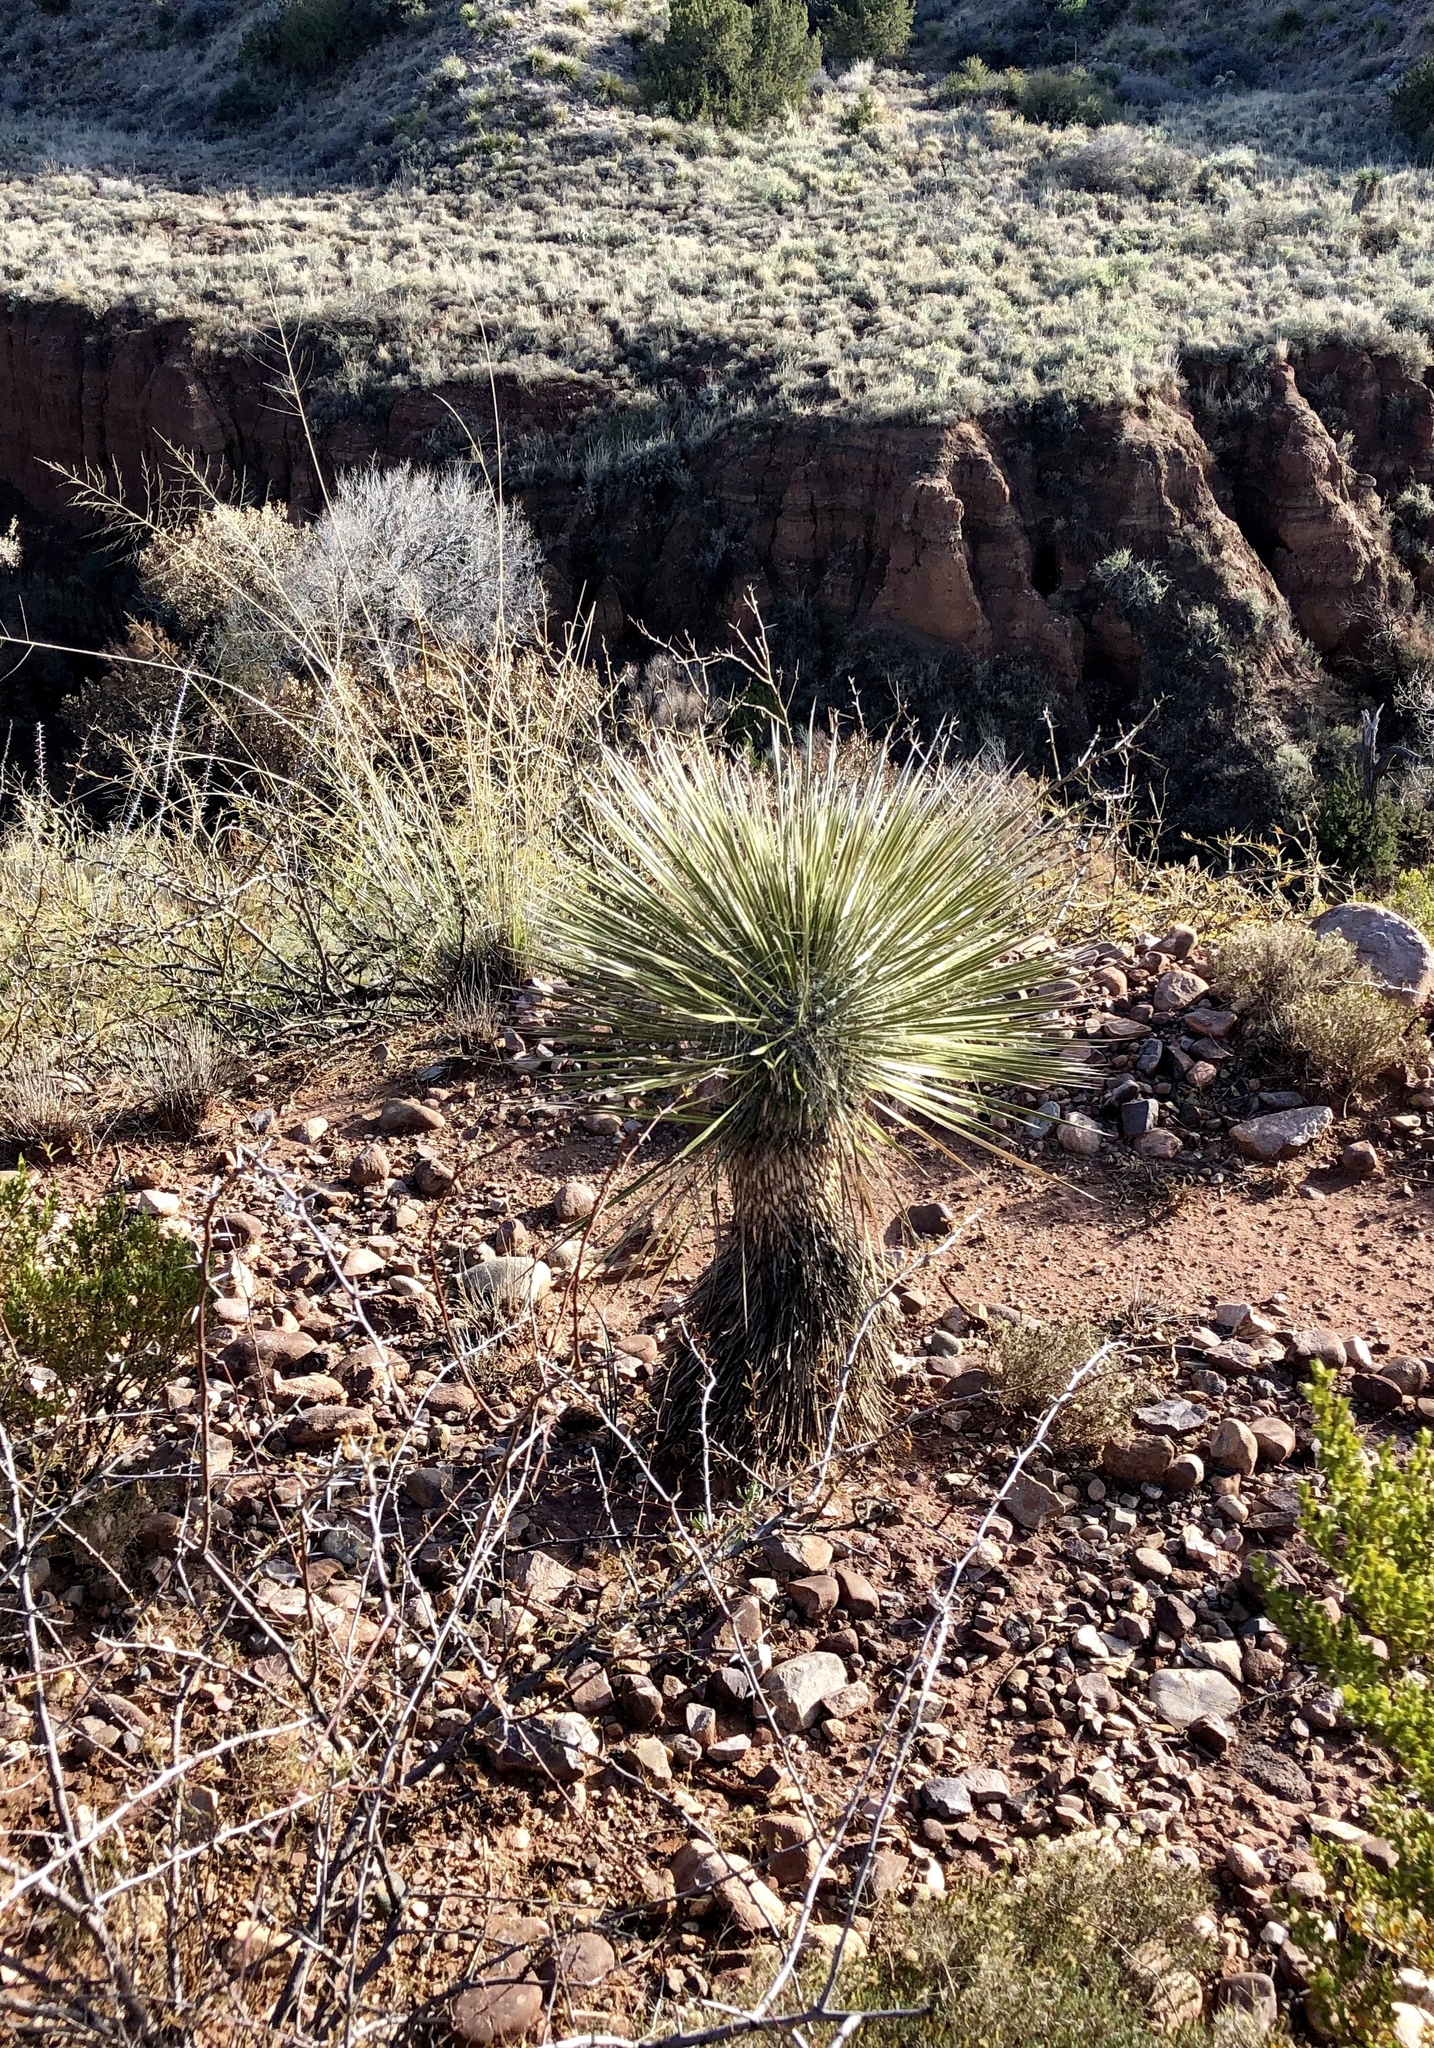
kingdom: Plantae
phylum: Tracheophyta
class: Liliopsida
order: Asparagales
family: Asparagaceae
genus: Yucca
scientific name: Yucca elata
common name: Palmella
